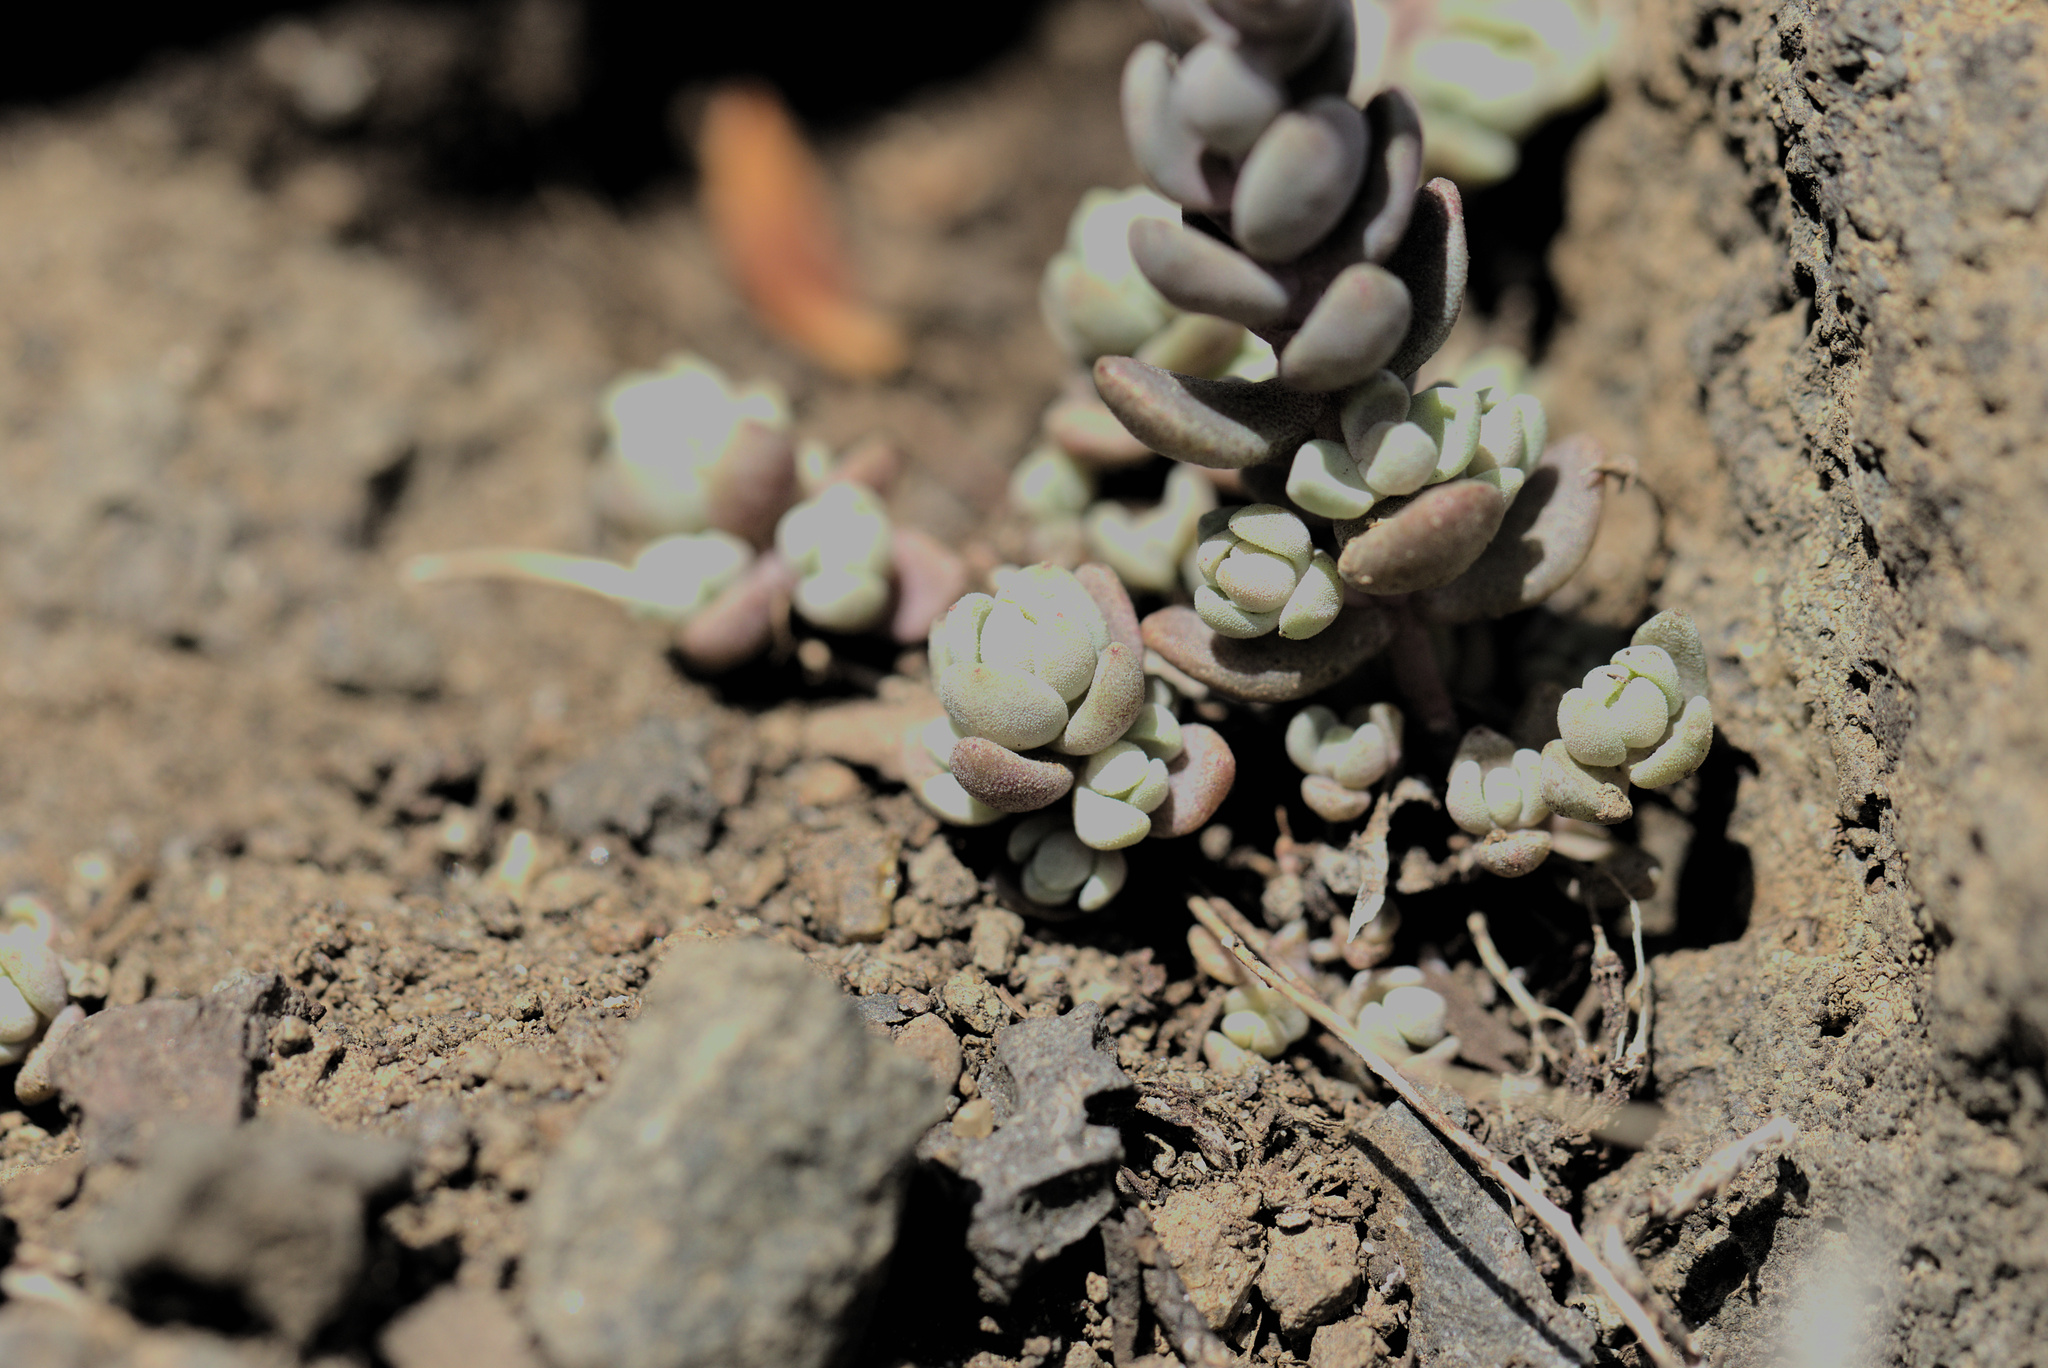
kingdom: Plantae
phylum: Tracheophyta
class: Magnoliopsida
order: Saxifragales
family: Crassulaceae
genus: Sedum
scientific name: Sedum debile
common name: Weak-stem stonecrop
